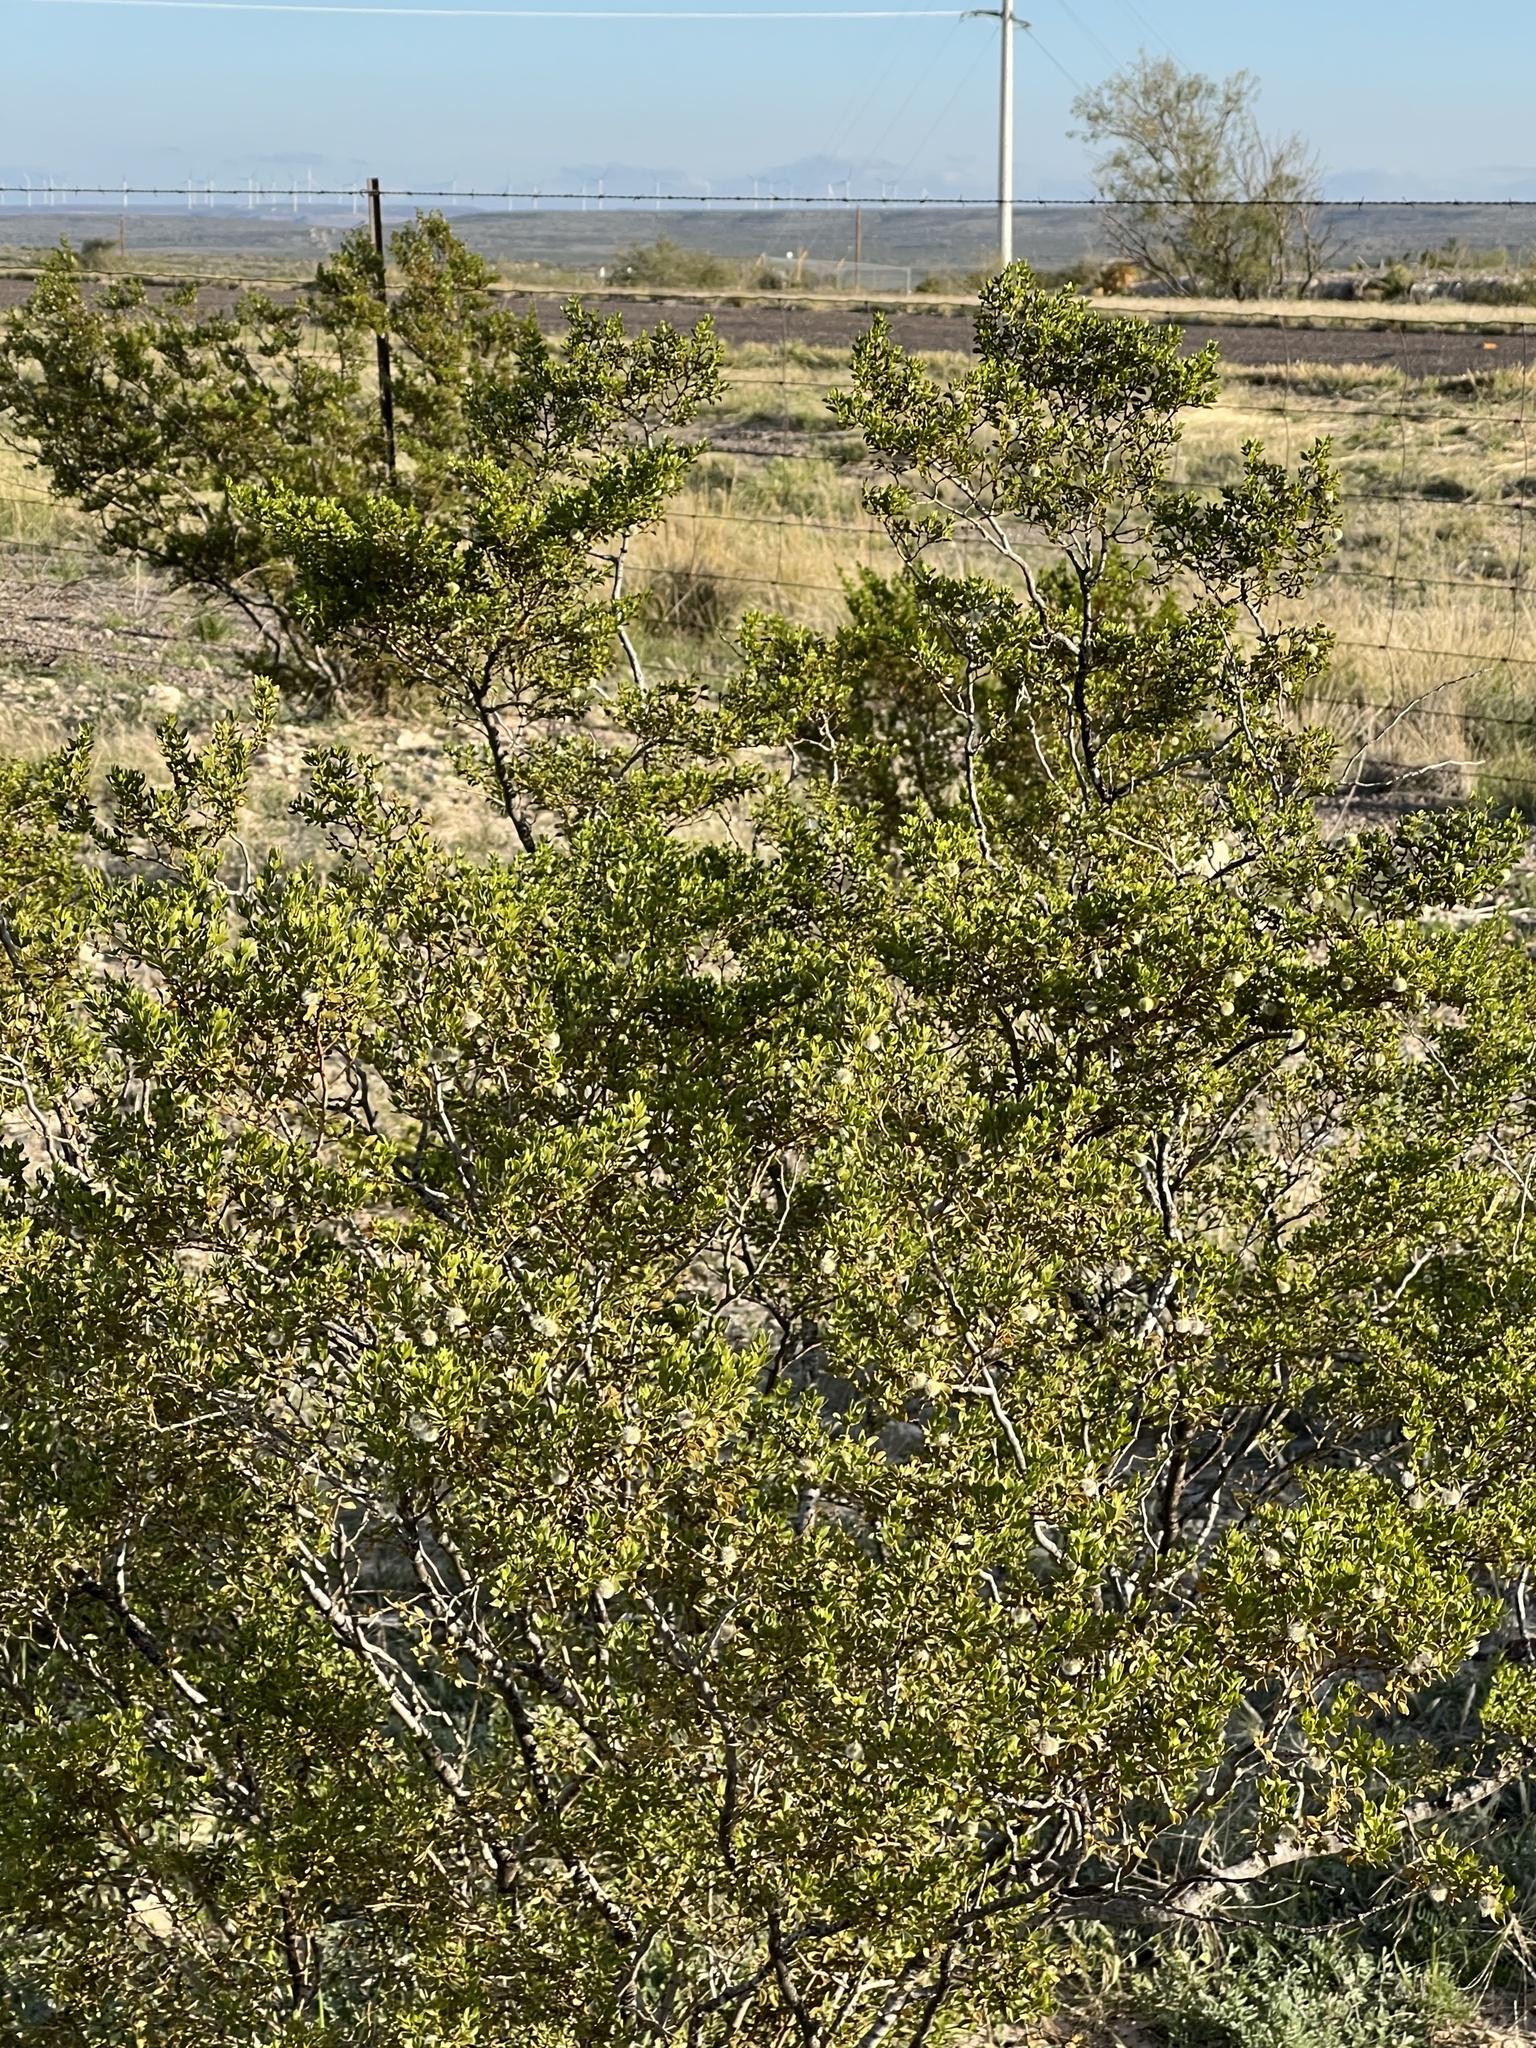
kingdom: Plantae
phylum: Tracheophyta
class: Magnoliopsida
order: Zygophyllales
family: Zygophyllaceae
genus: Larrea
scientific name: Larrea tridentata
